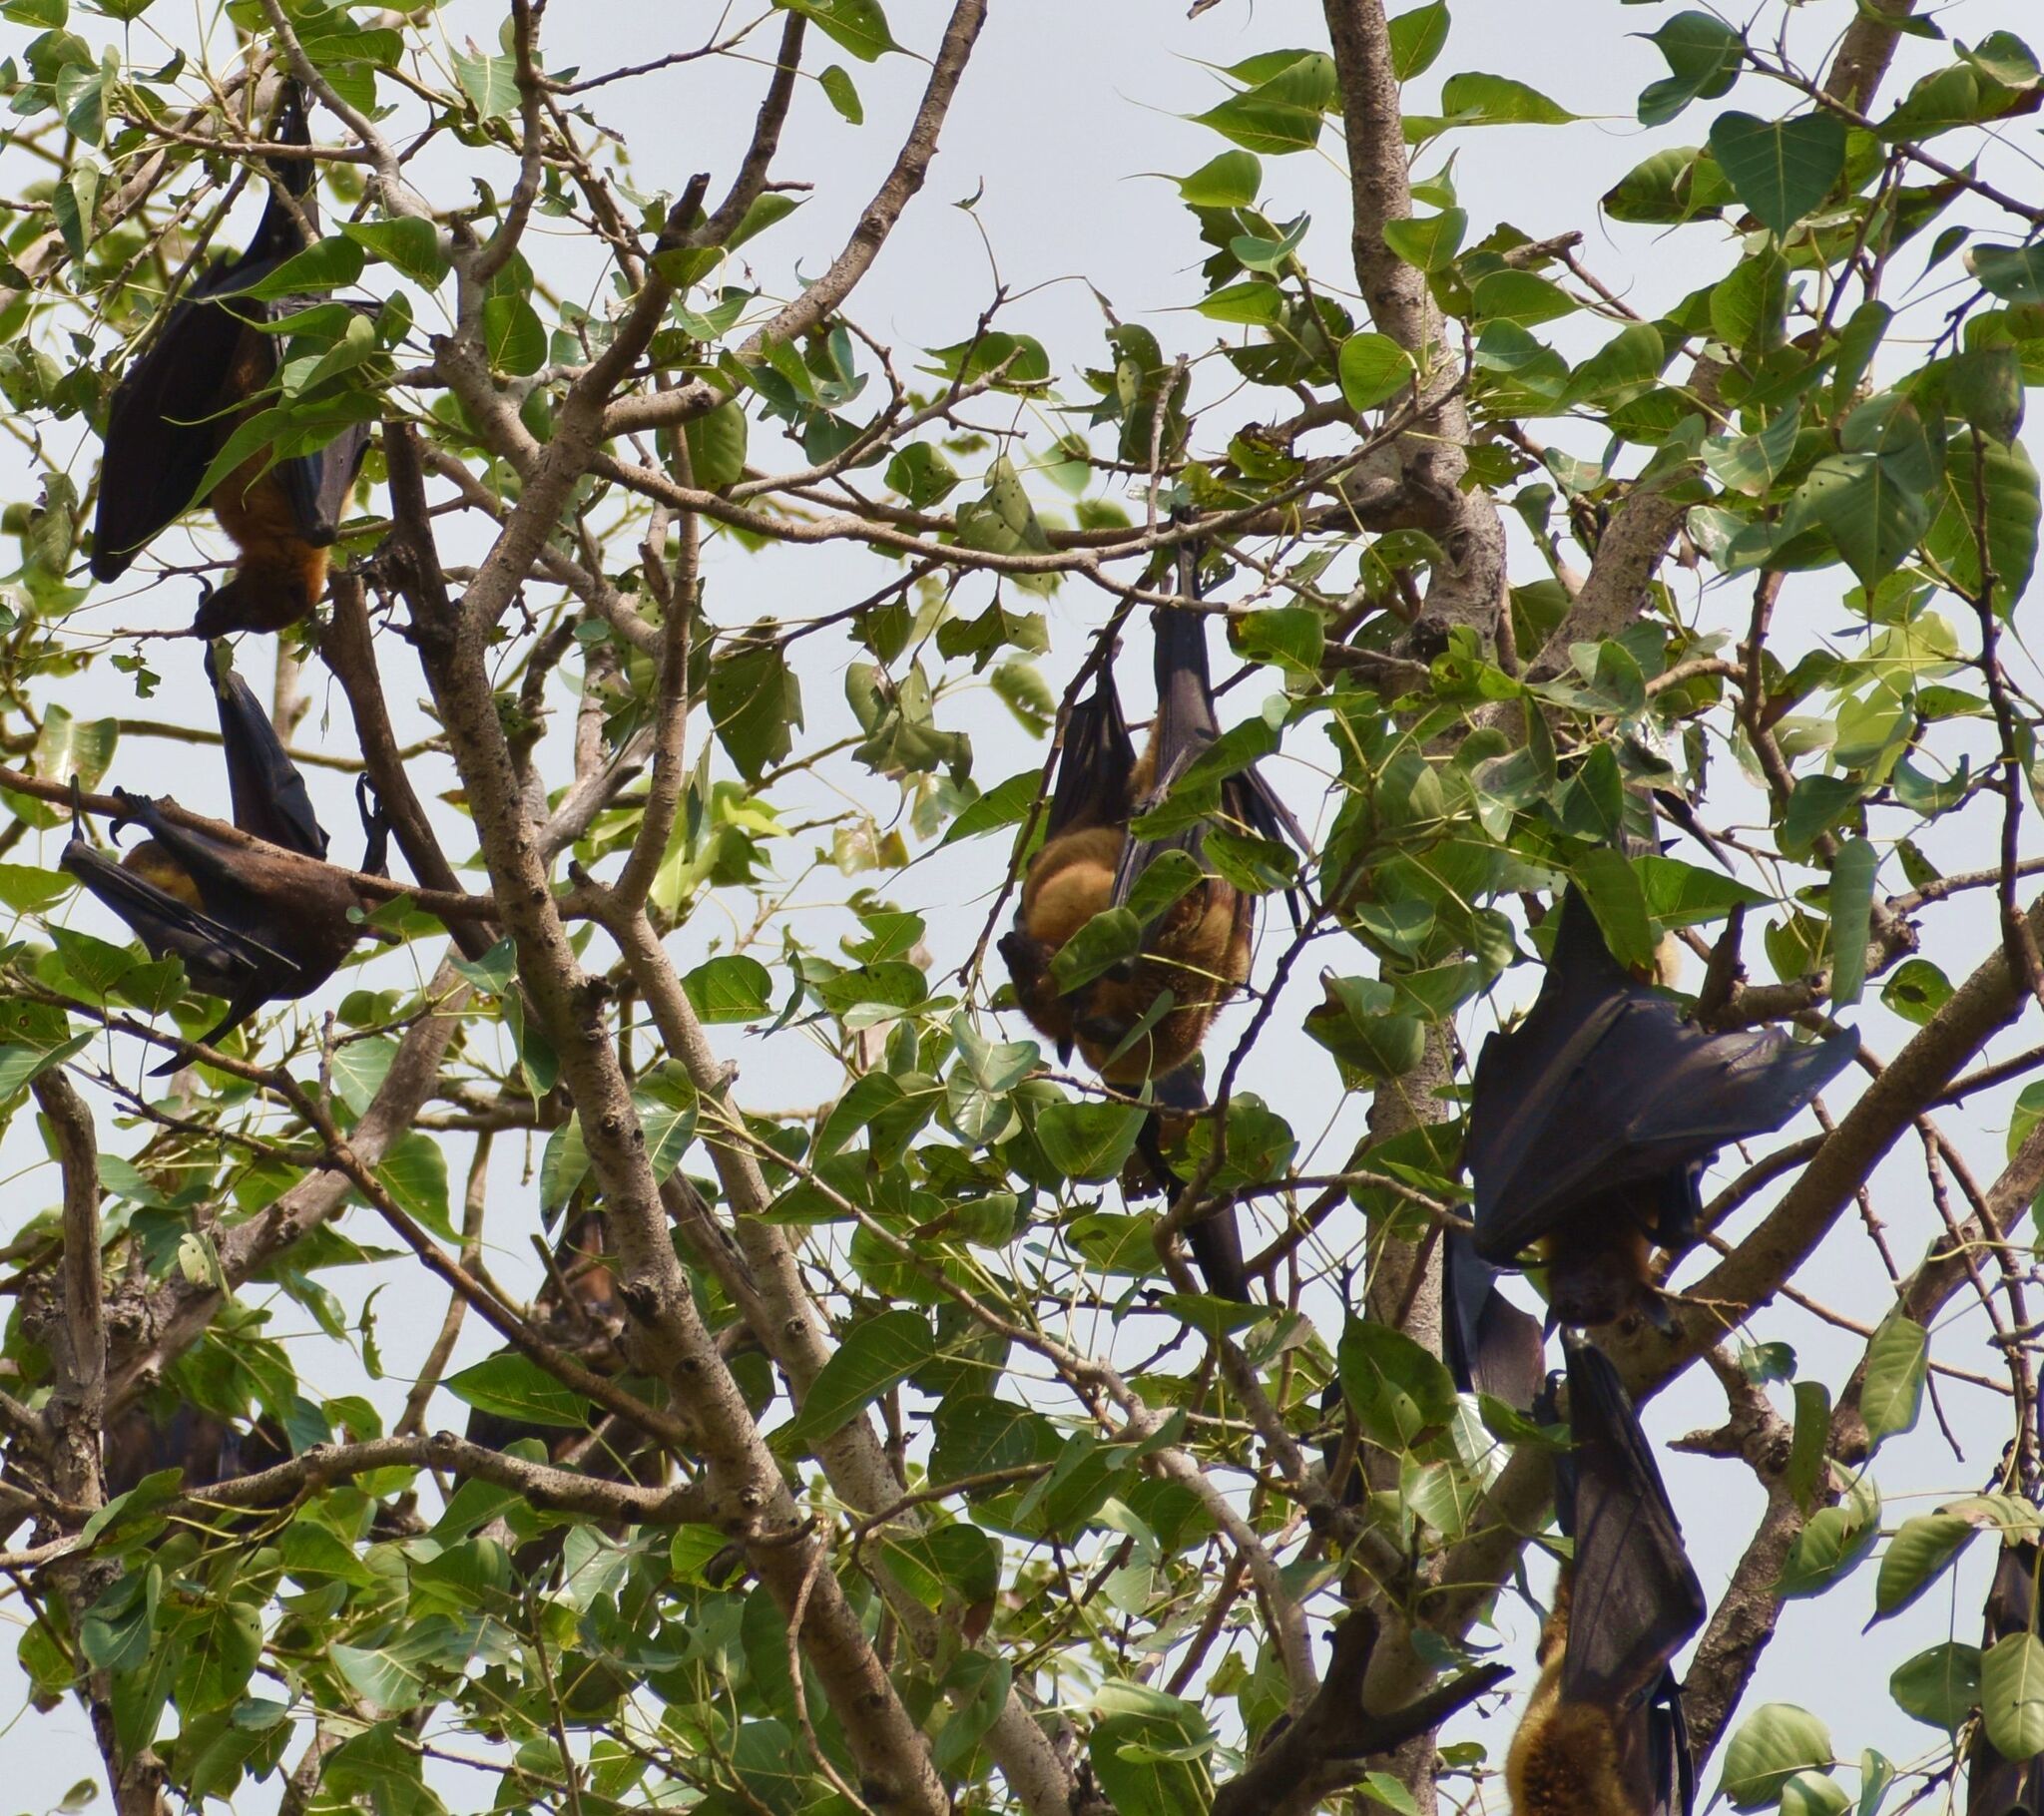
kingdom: Animalia
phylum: Chordata
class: Mammalia
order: Chiroptera
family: Pteropodidae
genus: Pteropus
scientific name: Pteropus vampyrus
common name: Large flying fox
